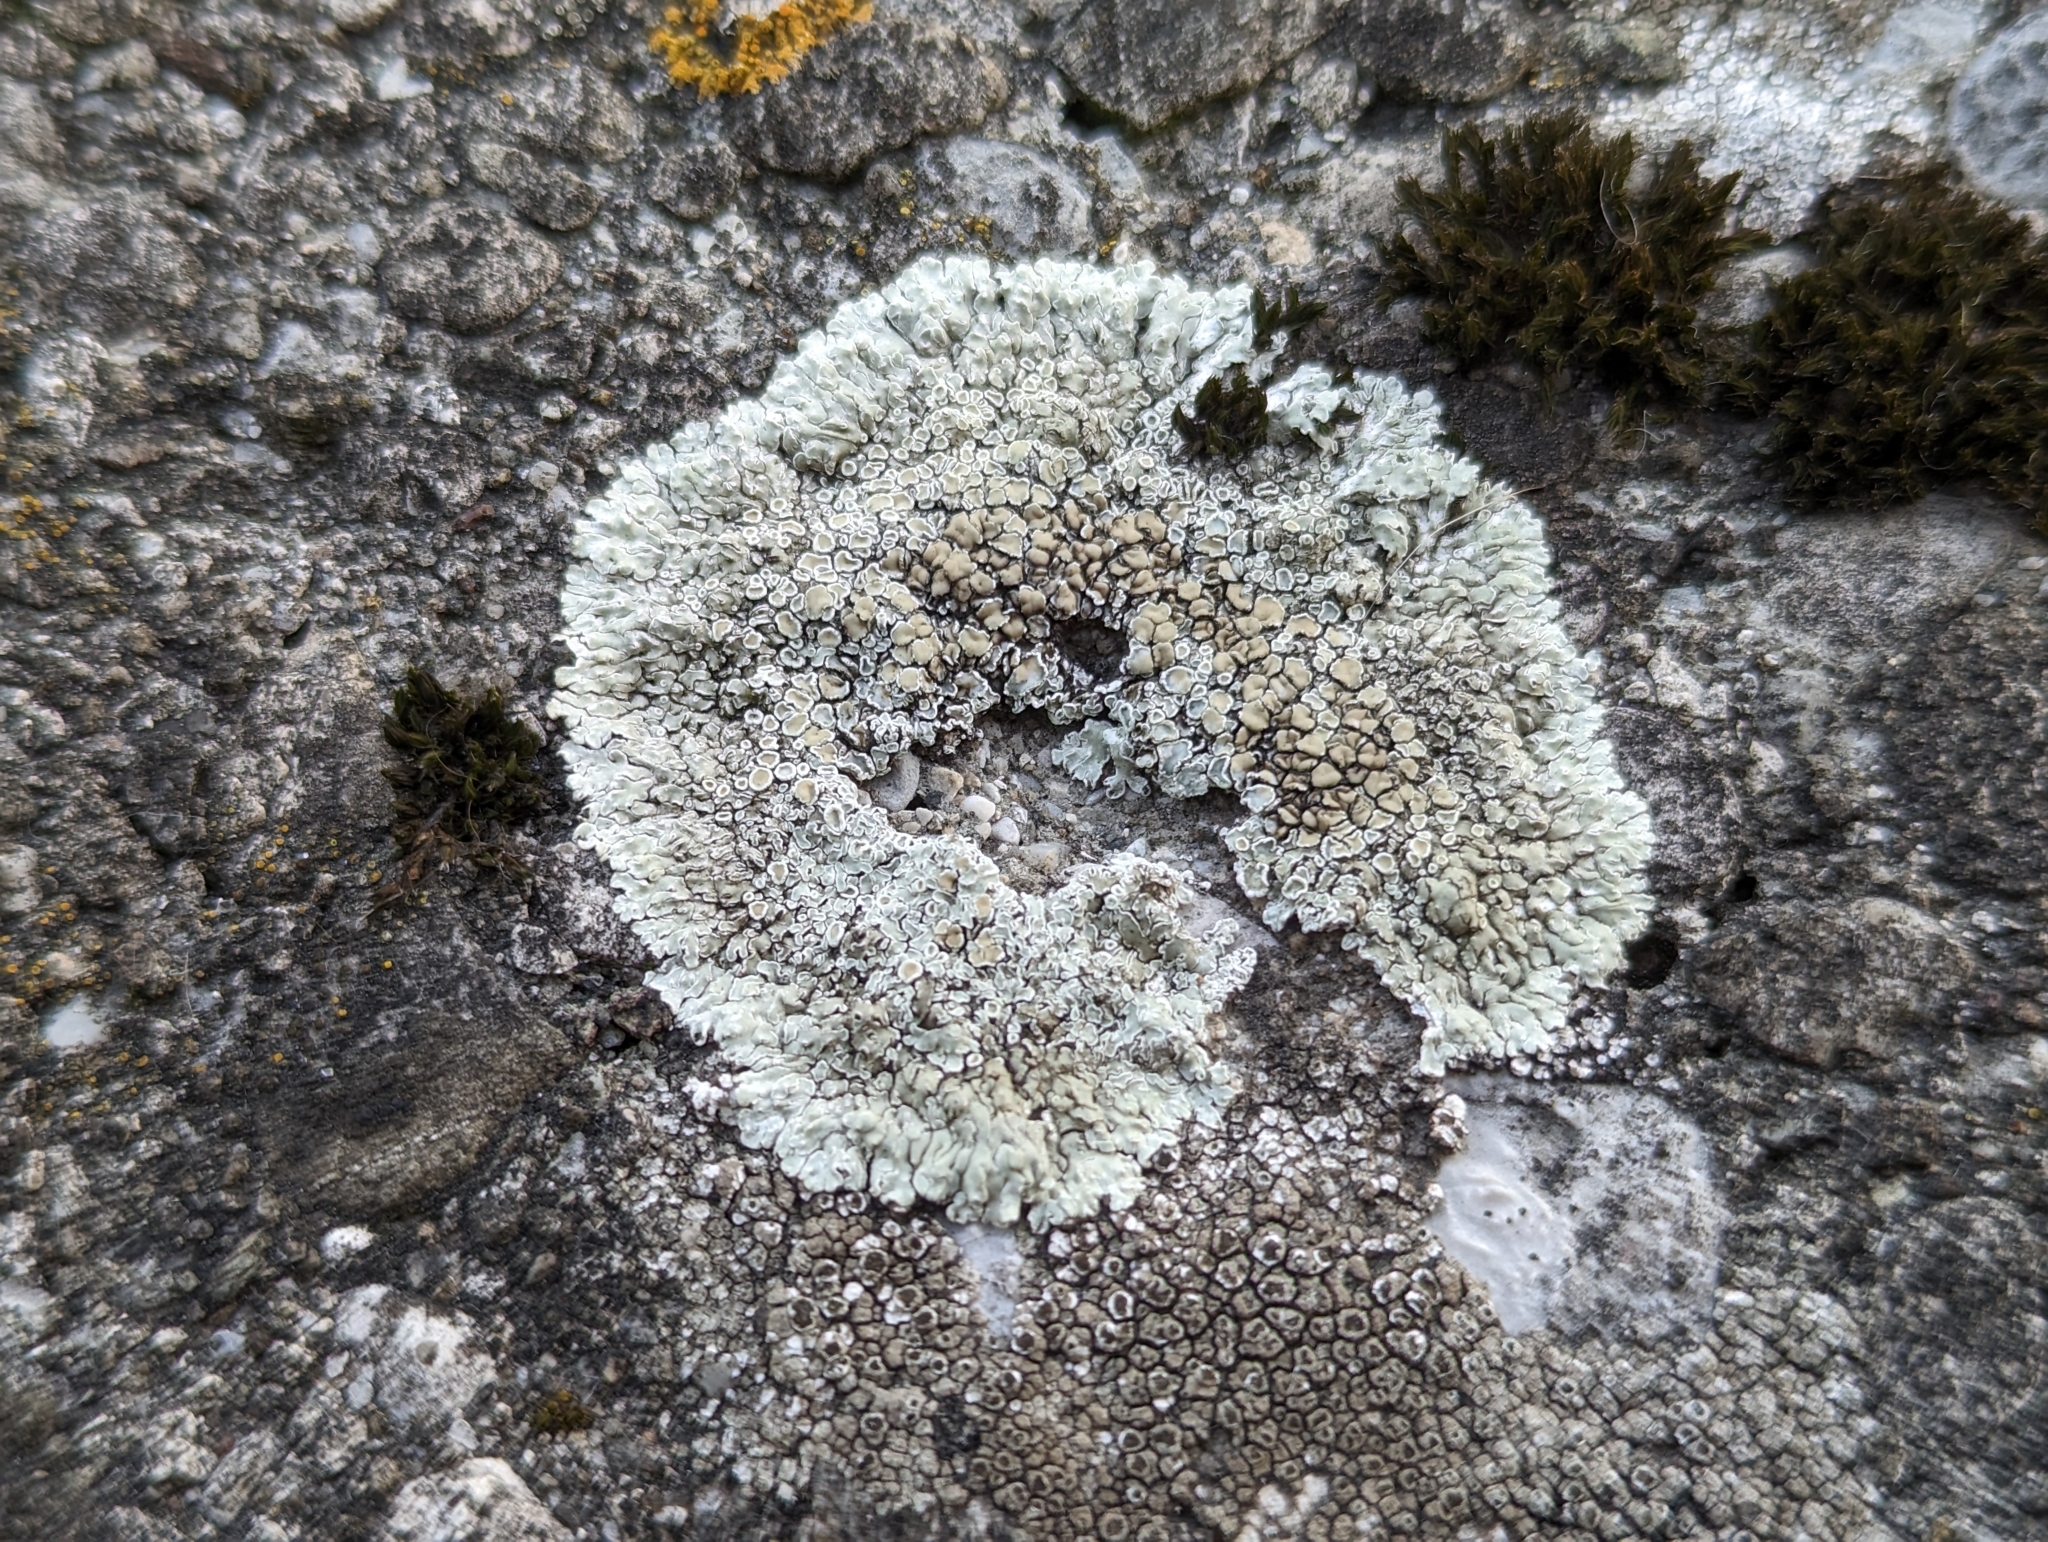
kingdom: Fungi
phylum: Ascomycota
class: Lecanoromycetes
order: Lecanorales
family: Lecanoraceae
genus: Protoparmeliopsis
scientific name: Protoparmeliopsis muralis
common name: Stonewall rim lichen
